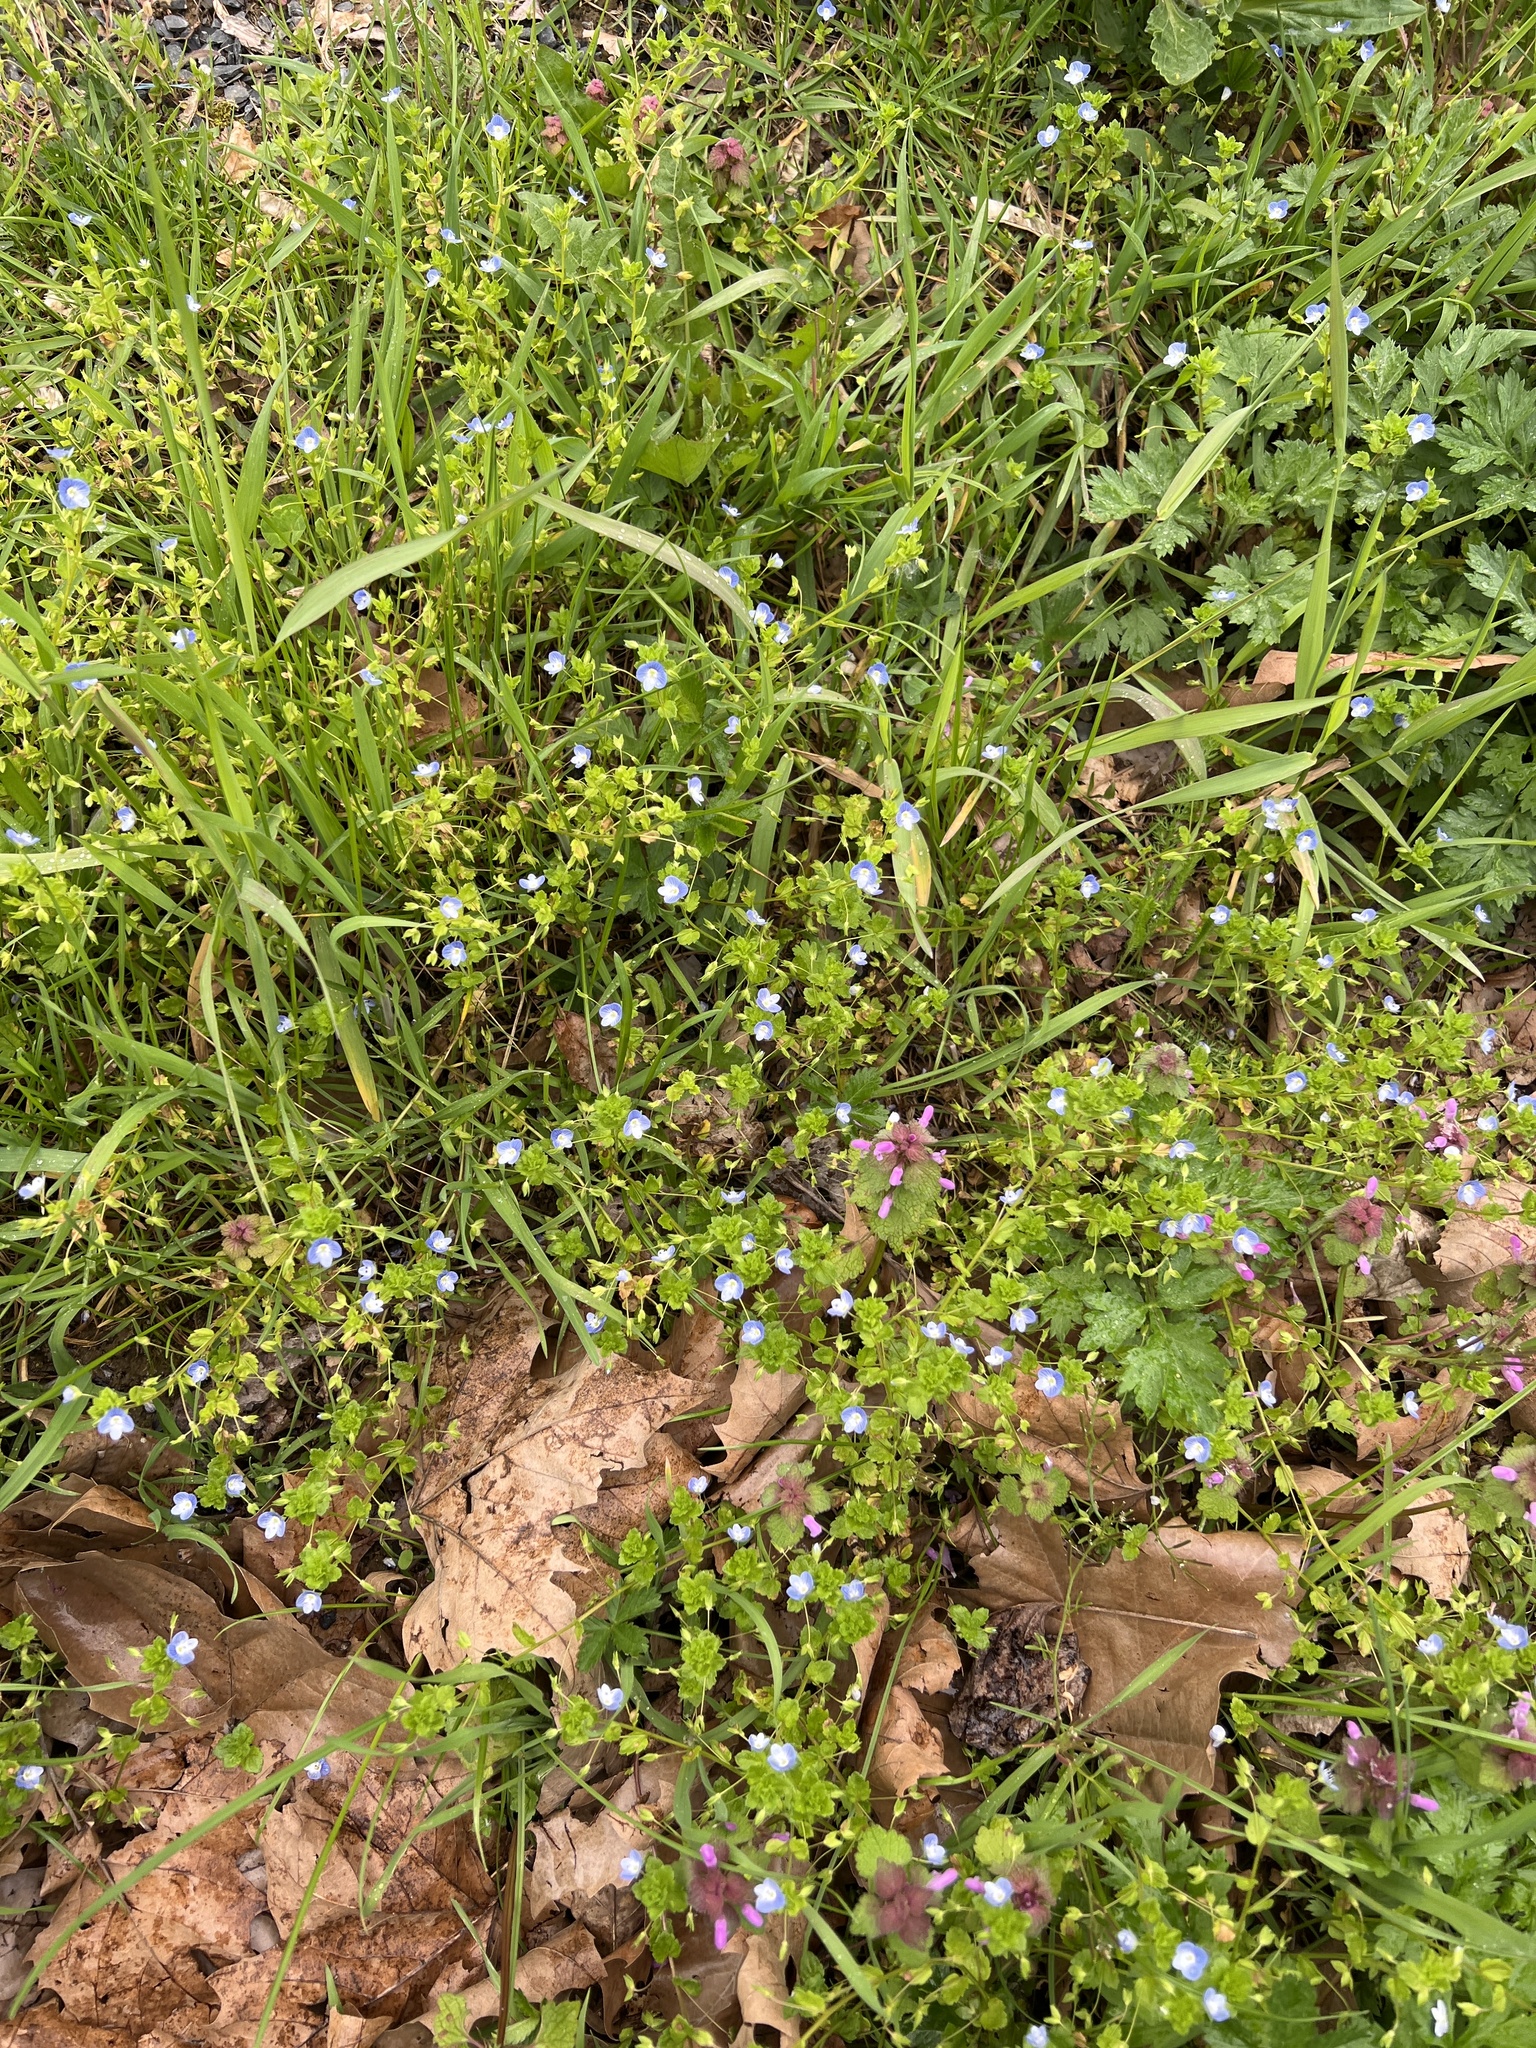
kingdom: Plantae
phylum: Tracheophyta
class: Magnoliopsida
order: Lamiales
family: Plantaginaceae
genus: Veronica
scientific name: Veronica persica
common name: Common field-speedwell
